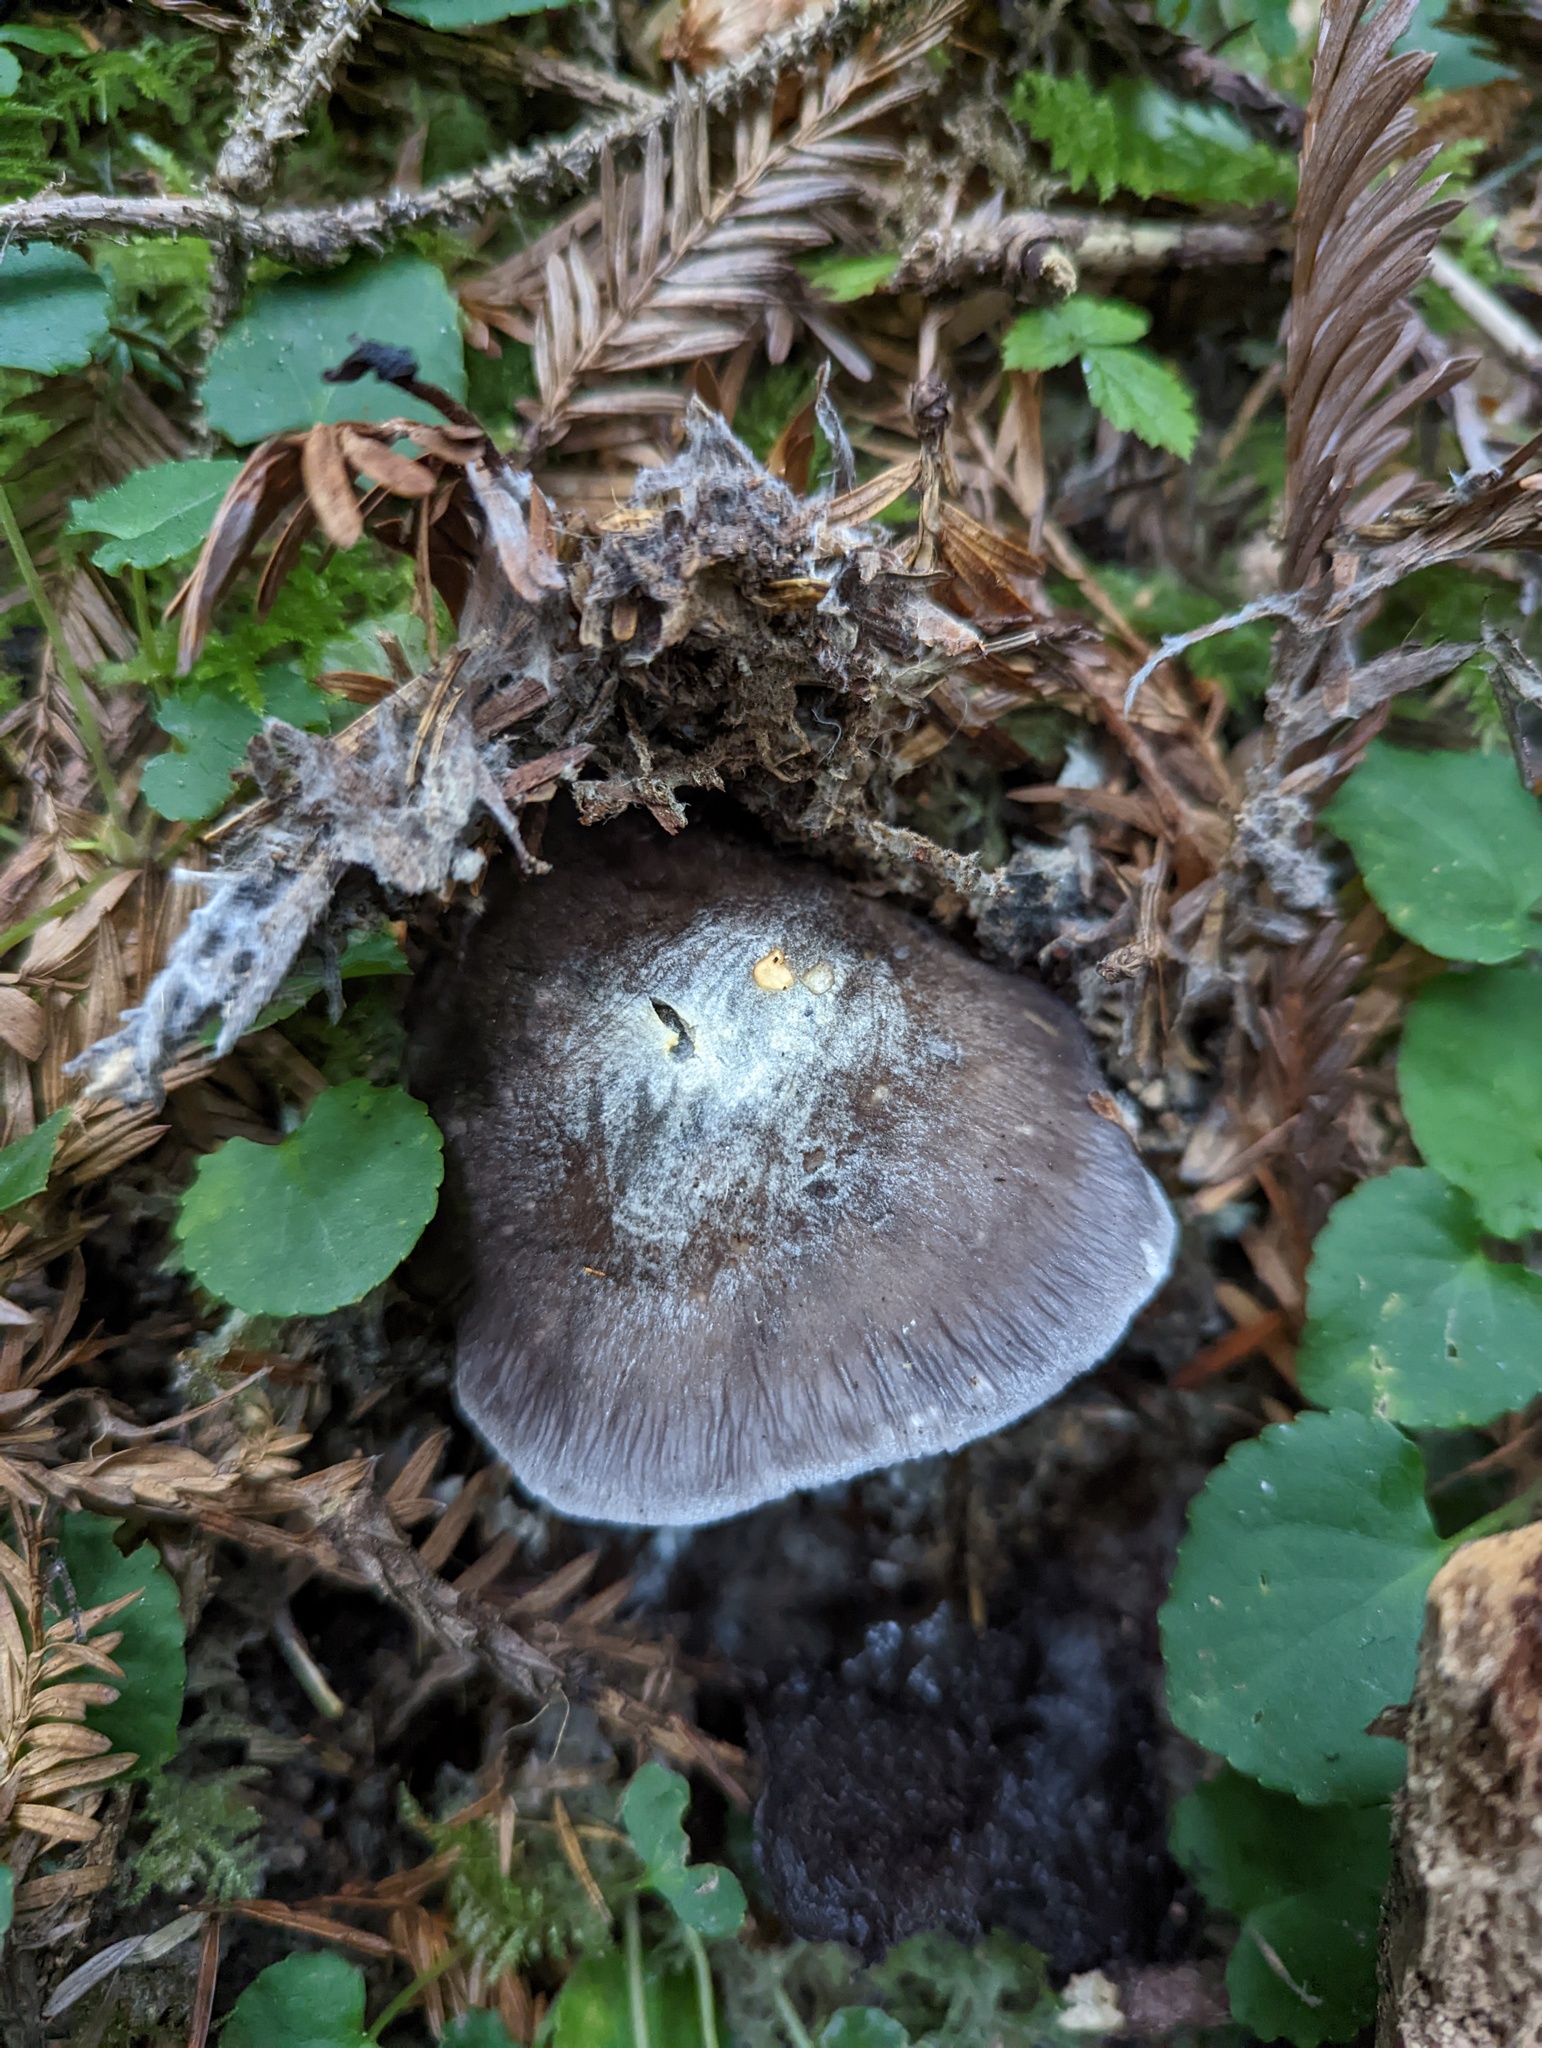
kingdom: Fungi
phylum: Basidiomycota
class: Agaricomycetes
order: Agaricales
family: Entolomataceae
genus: Entoloma
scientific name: Entoloma medianox
